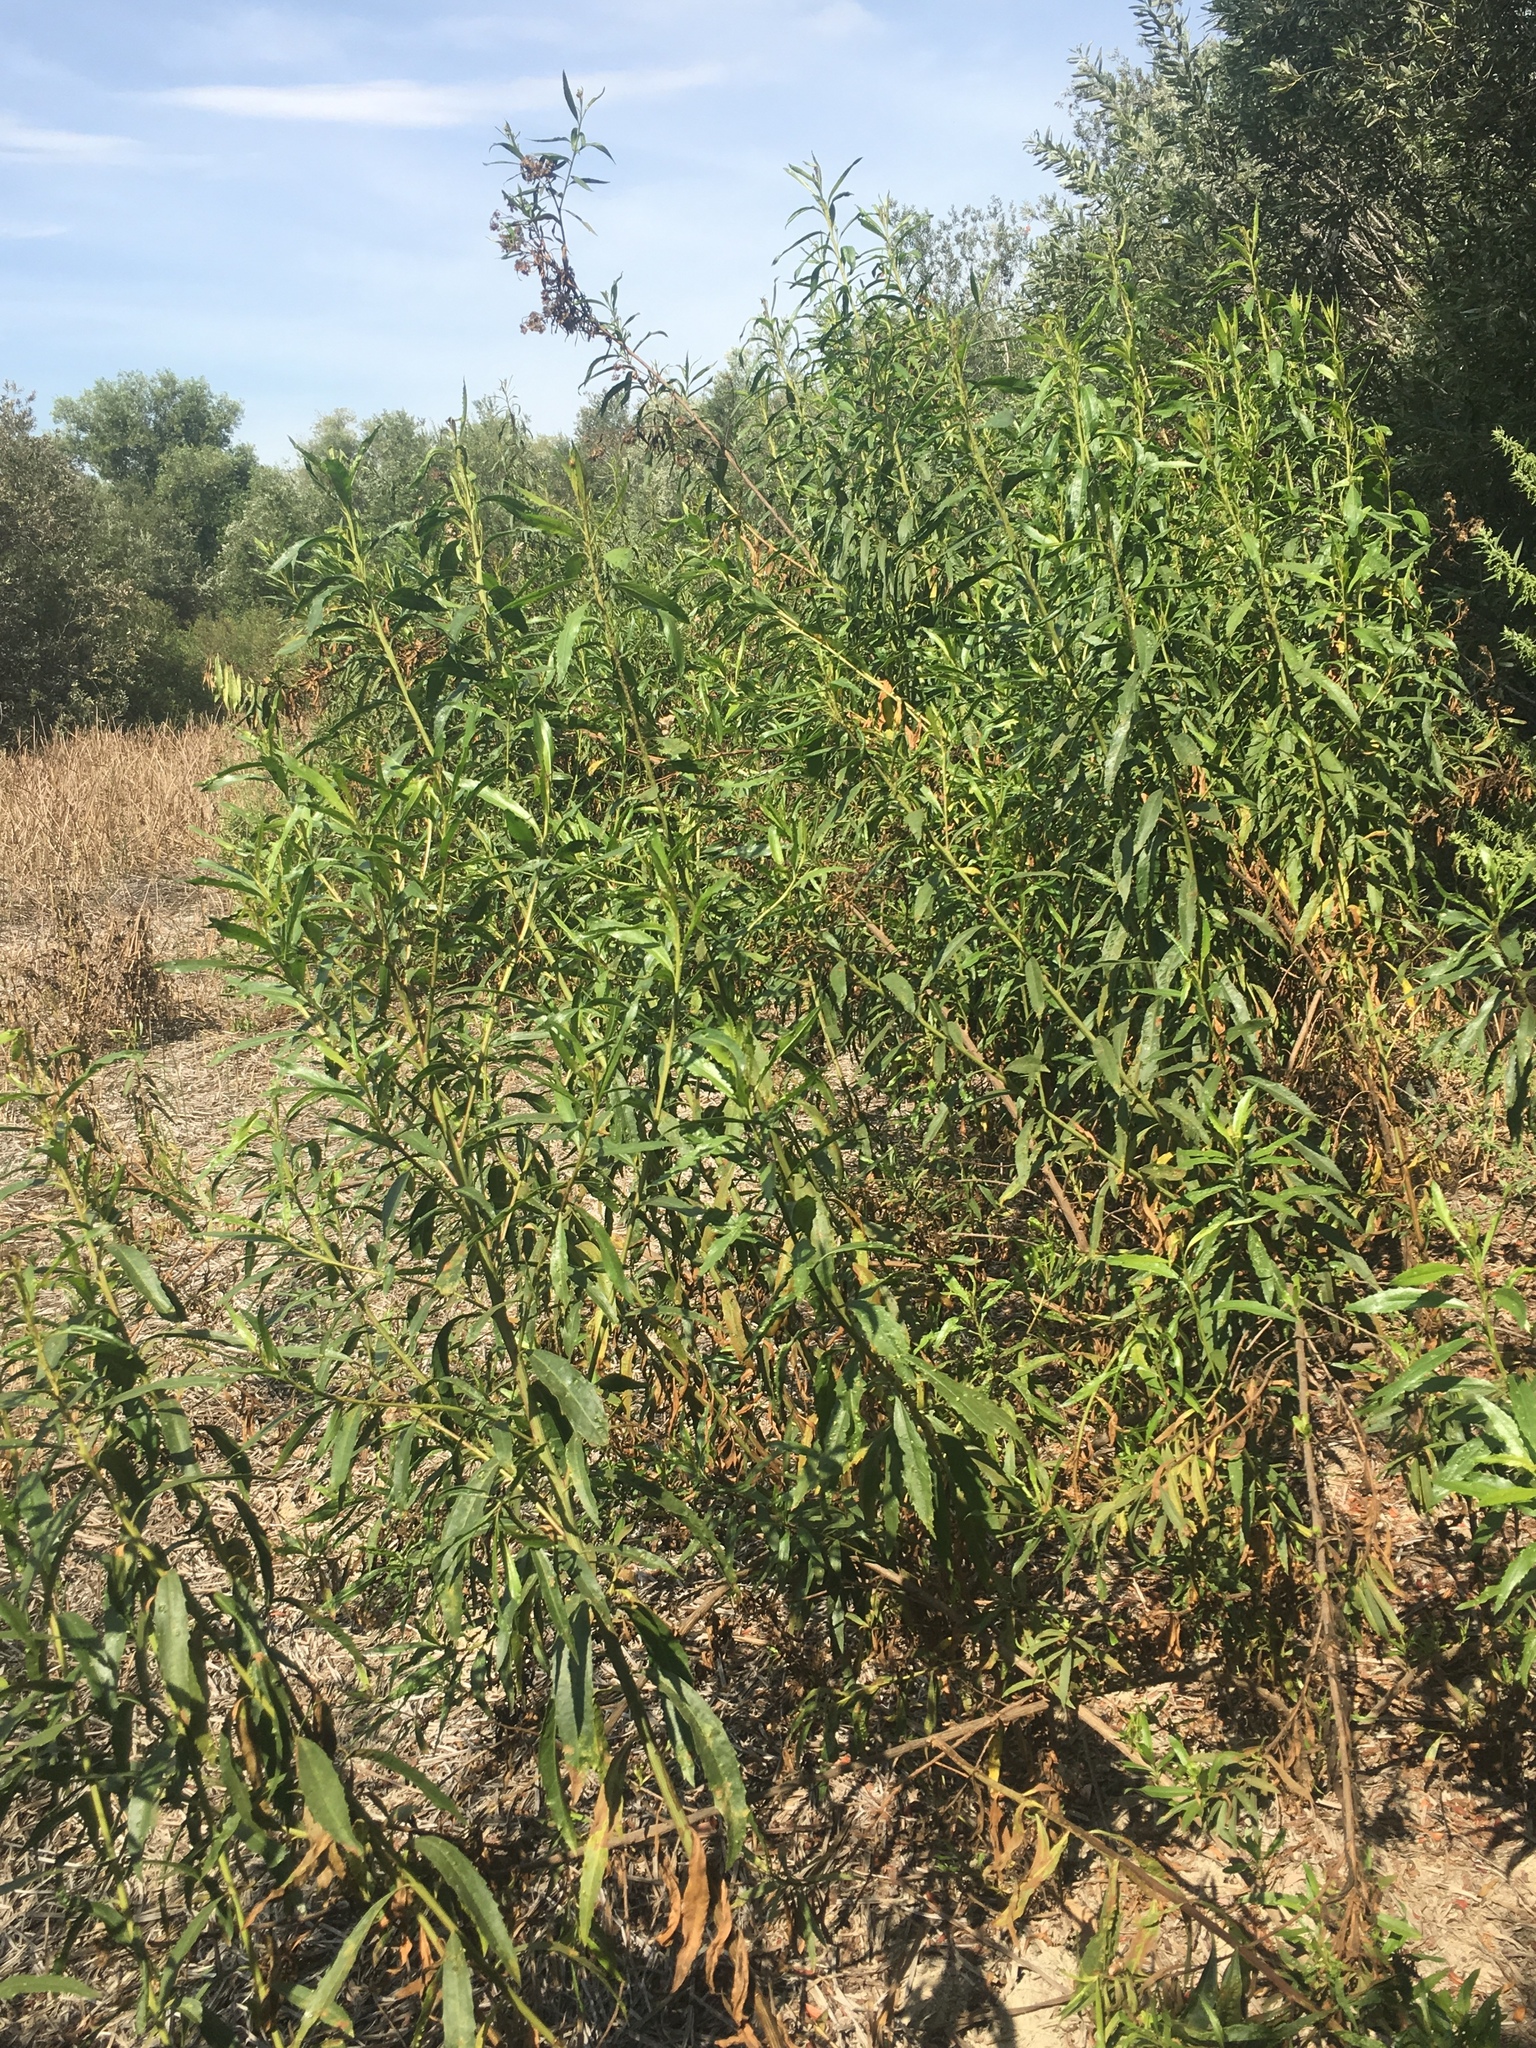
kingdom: Plantae
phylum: Tracheophyta
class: Magnoliopsida
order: Asterales
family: Asteraceae
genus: Baccharis
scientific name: Baccharis salicifolia
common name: Sticky baccharis
